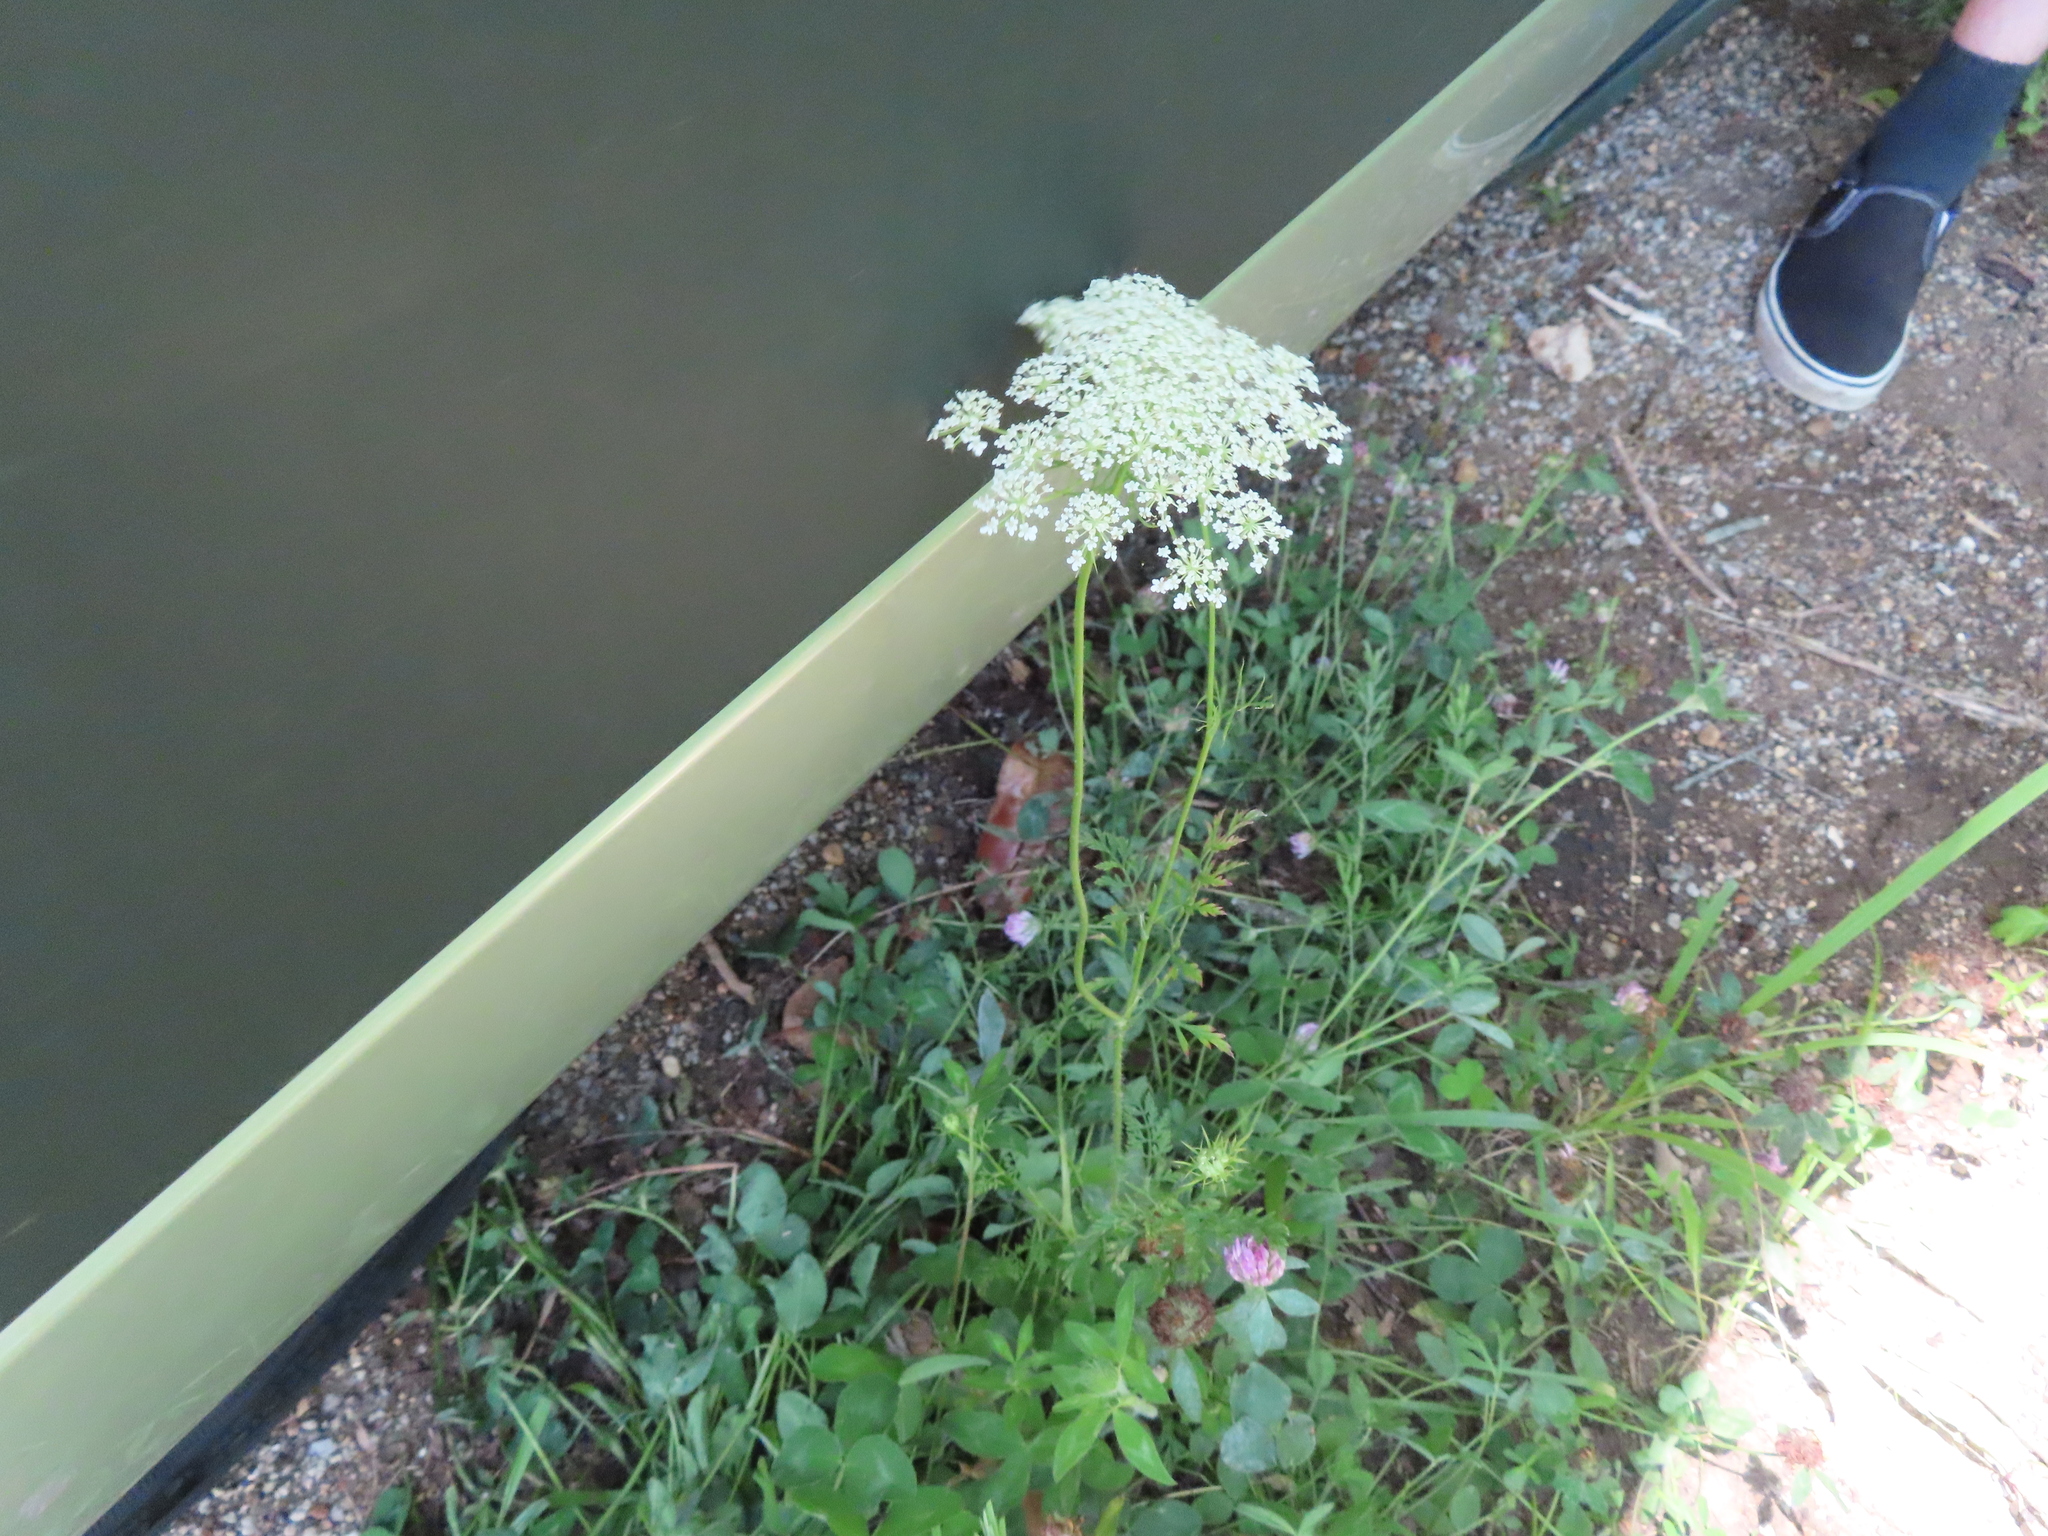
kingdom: Plantae
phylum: Tracheophyta
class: Magnoliopsida
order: Apiales
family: Apiaceae
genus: Daucus
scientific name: Daucus carota
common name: Wild carrot
